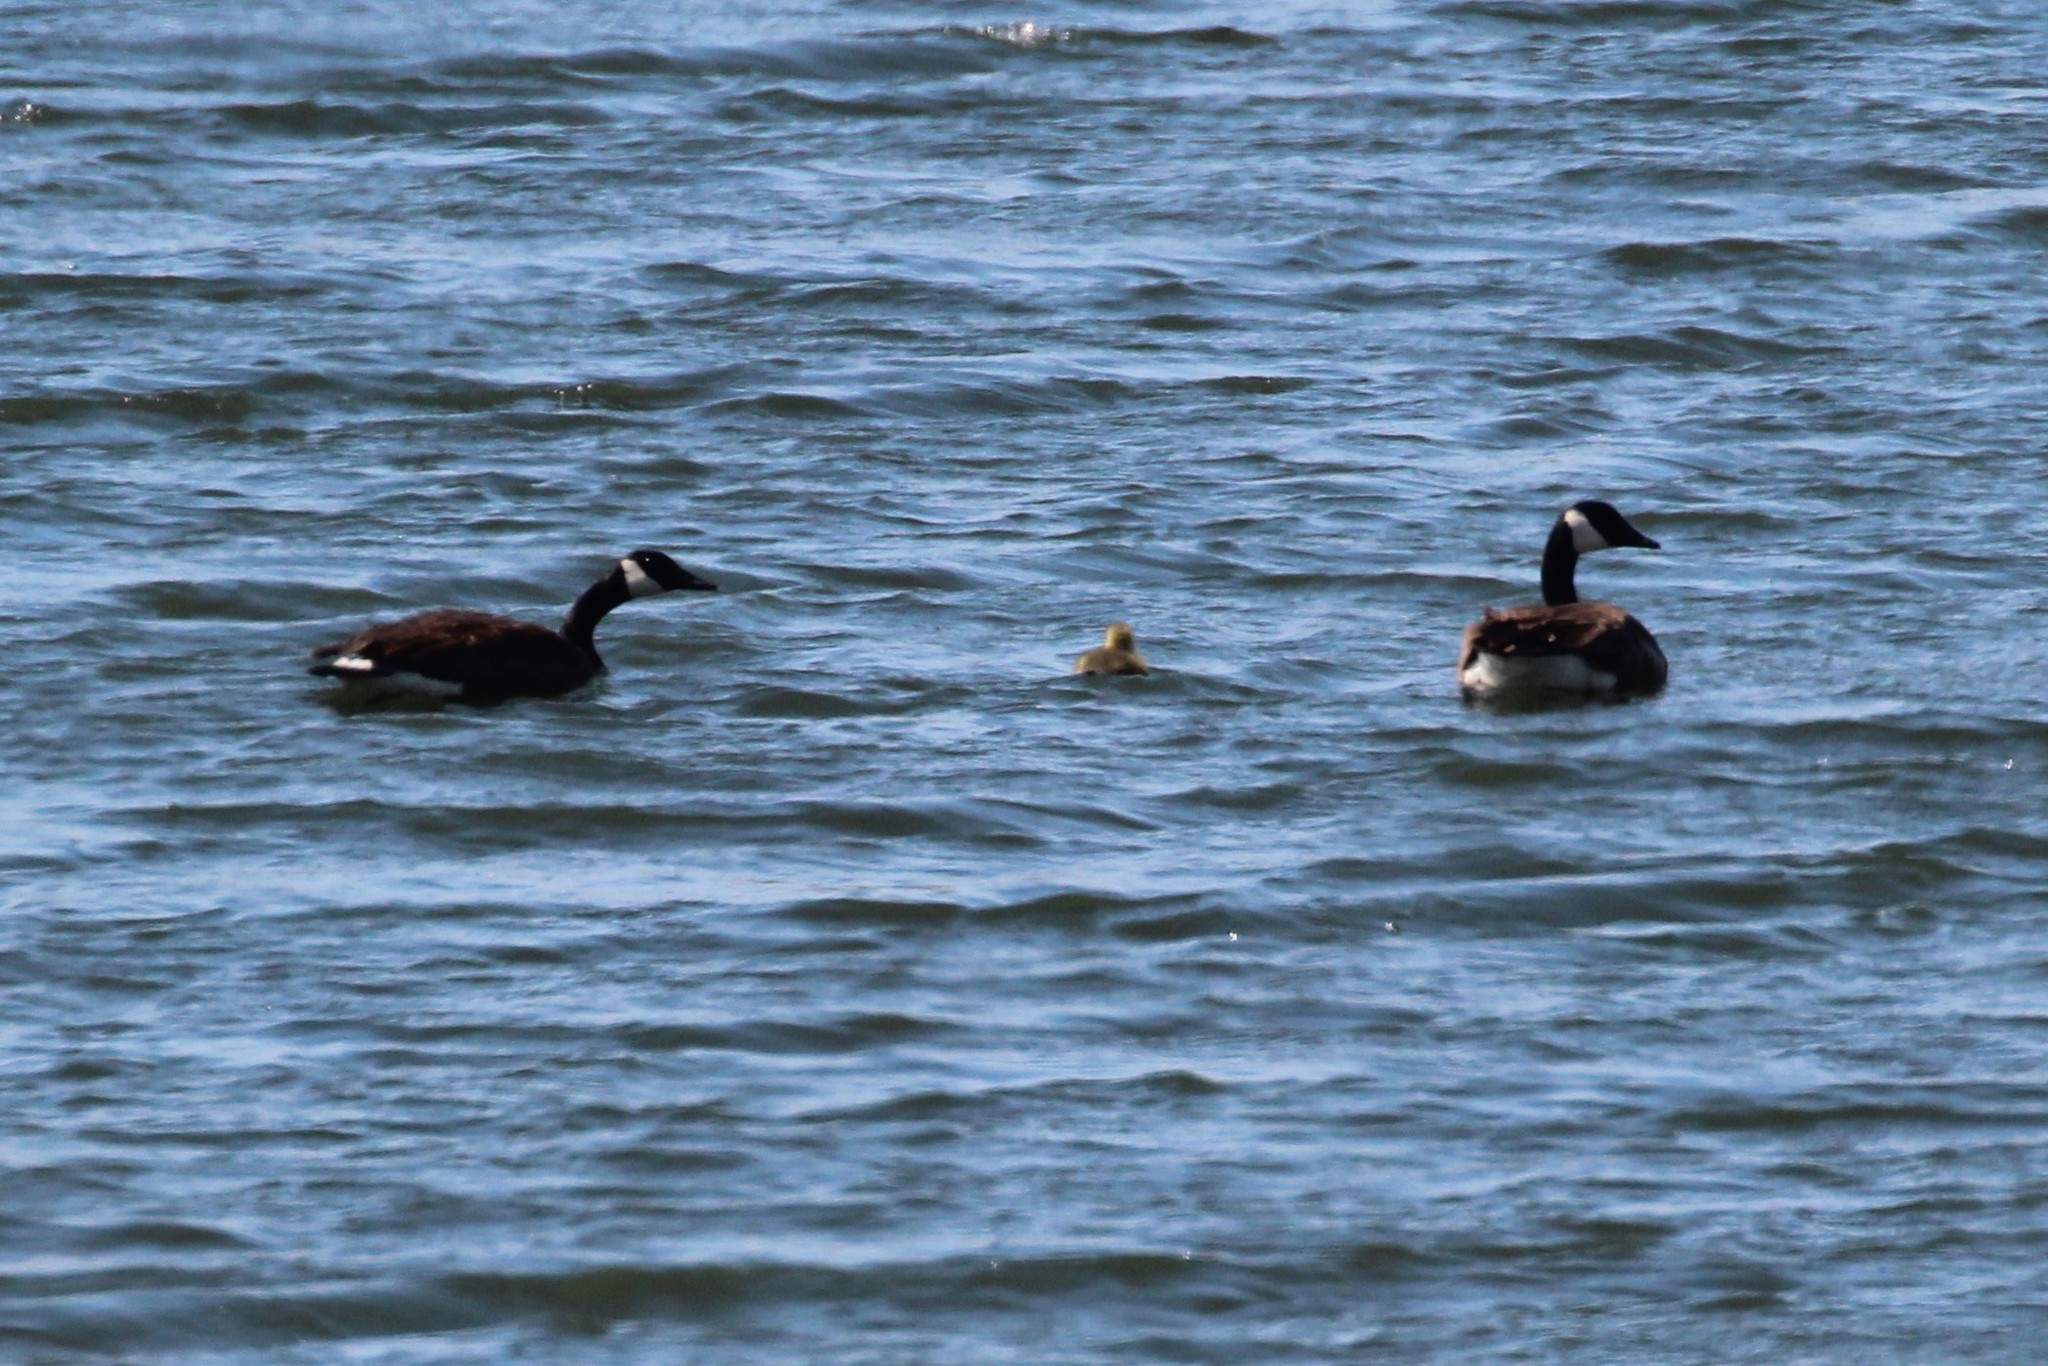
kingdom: Animalia
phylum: Chordata
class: Aves
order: Anseriformes
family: Anatidae
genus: Branta
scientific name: Branta canadensis
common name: Canada goose
